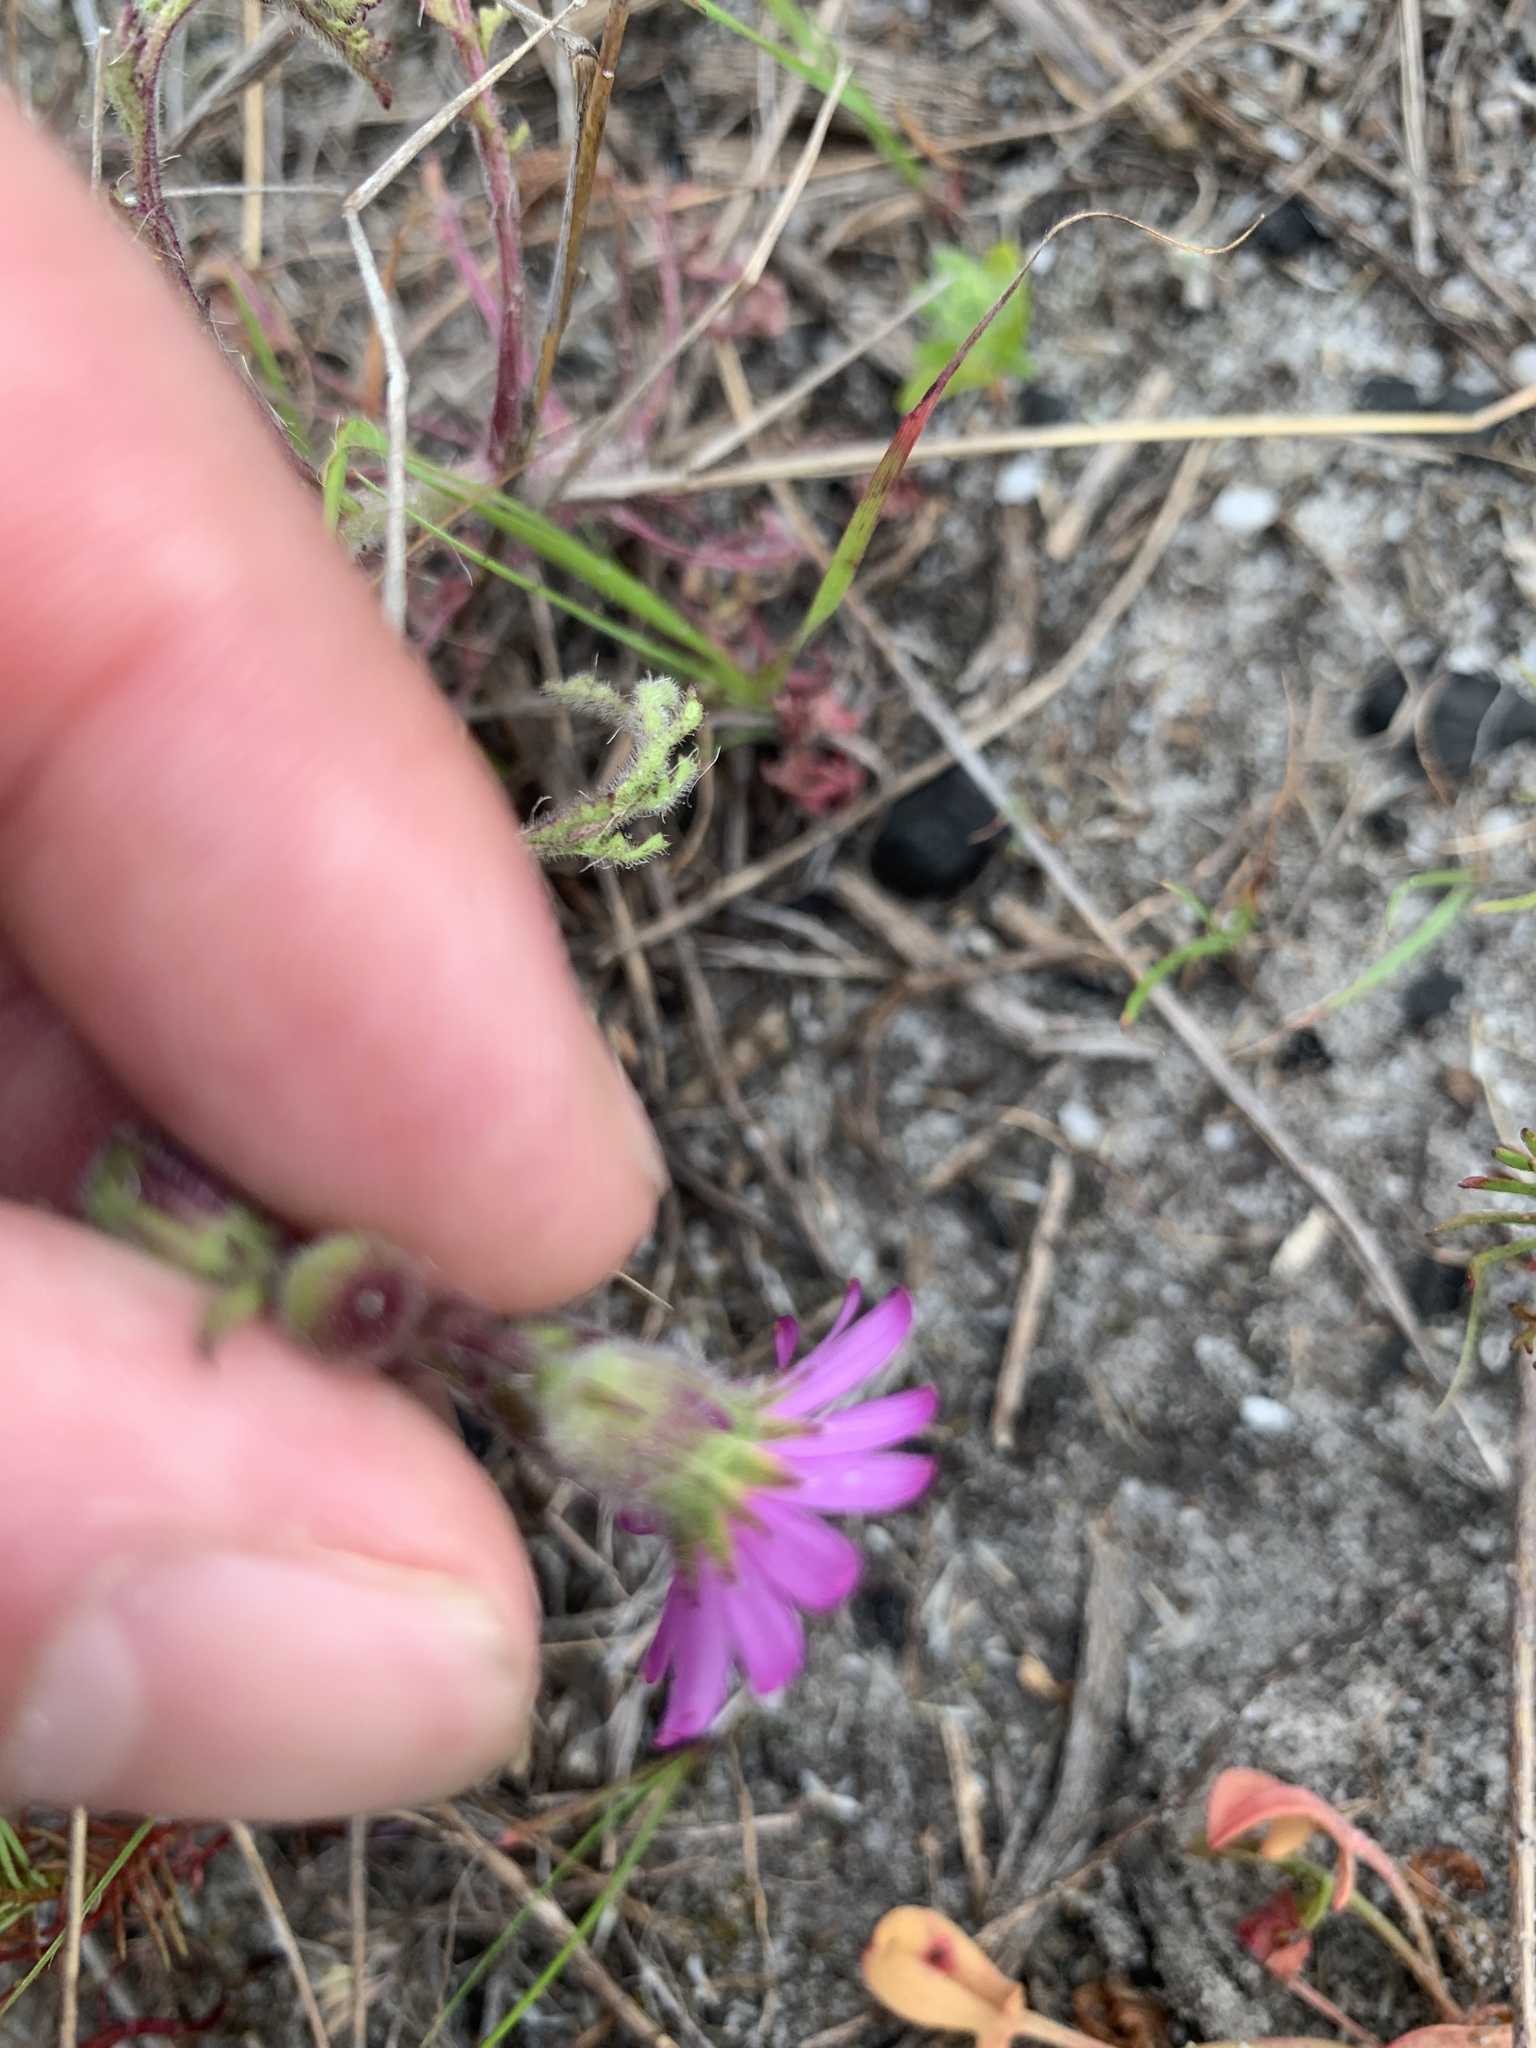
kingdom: Plantae
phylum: Tracheophyta
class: Magnoliopsida
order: Asterales
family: Asteraceae
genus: Senecio
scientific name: Senecio arenarius
